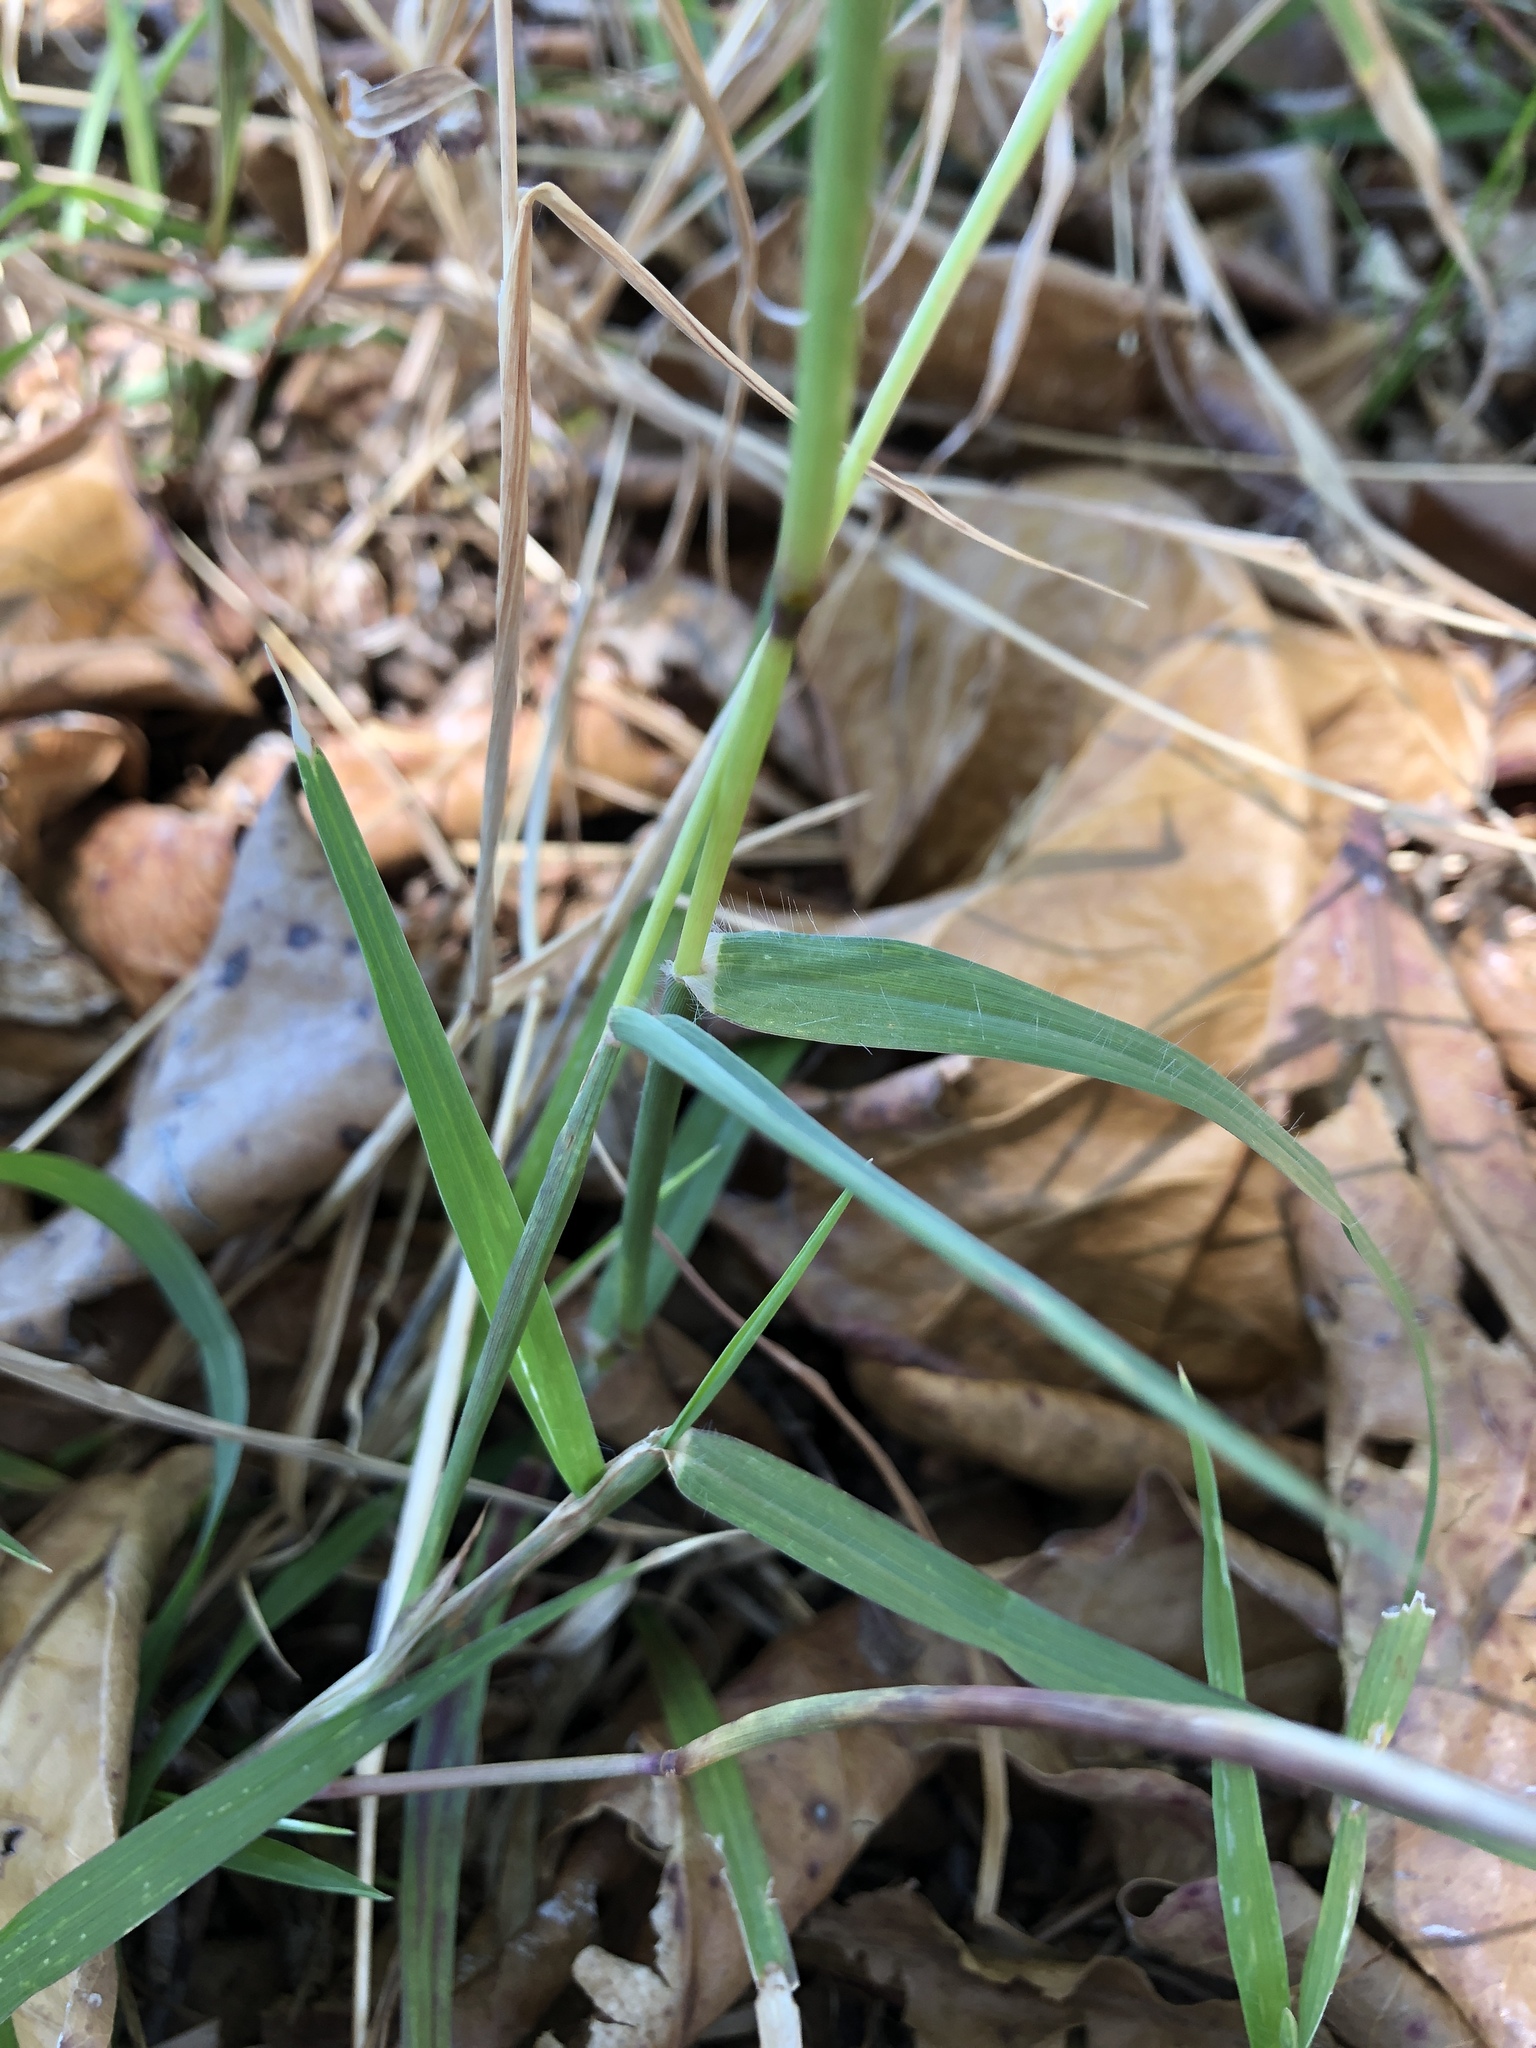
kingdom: Plantae
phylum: Tracheophyta
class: Liliopsida
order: Poales
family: Poaceae
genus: Cenchrus
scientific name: Cenchrus echinatus
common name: Southern sandbur
